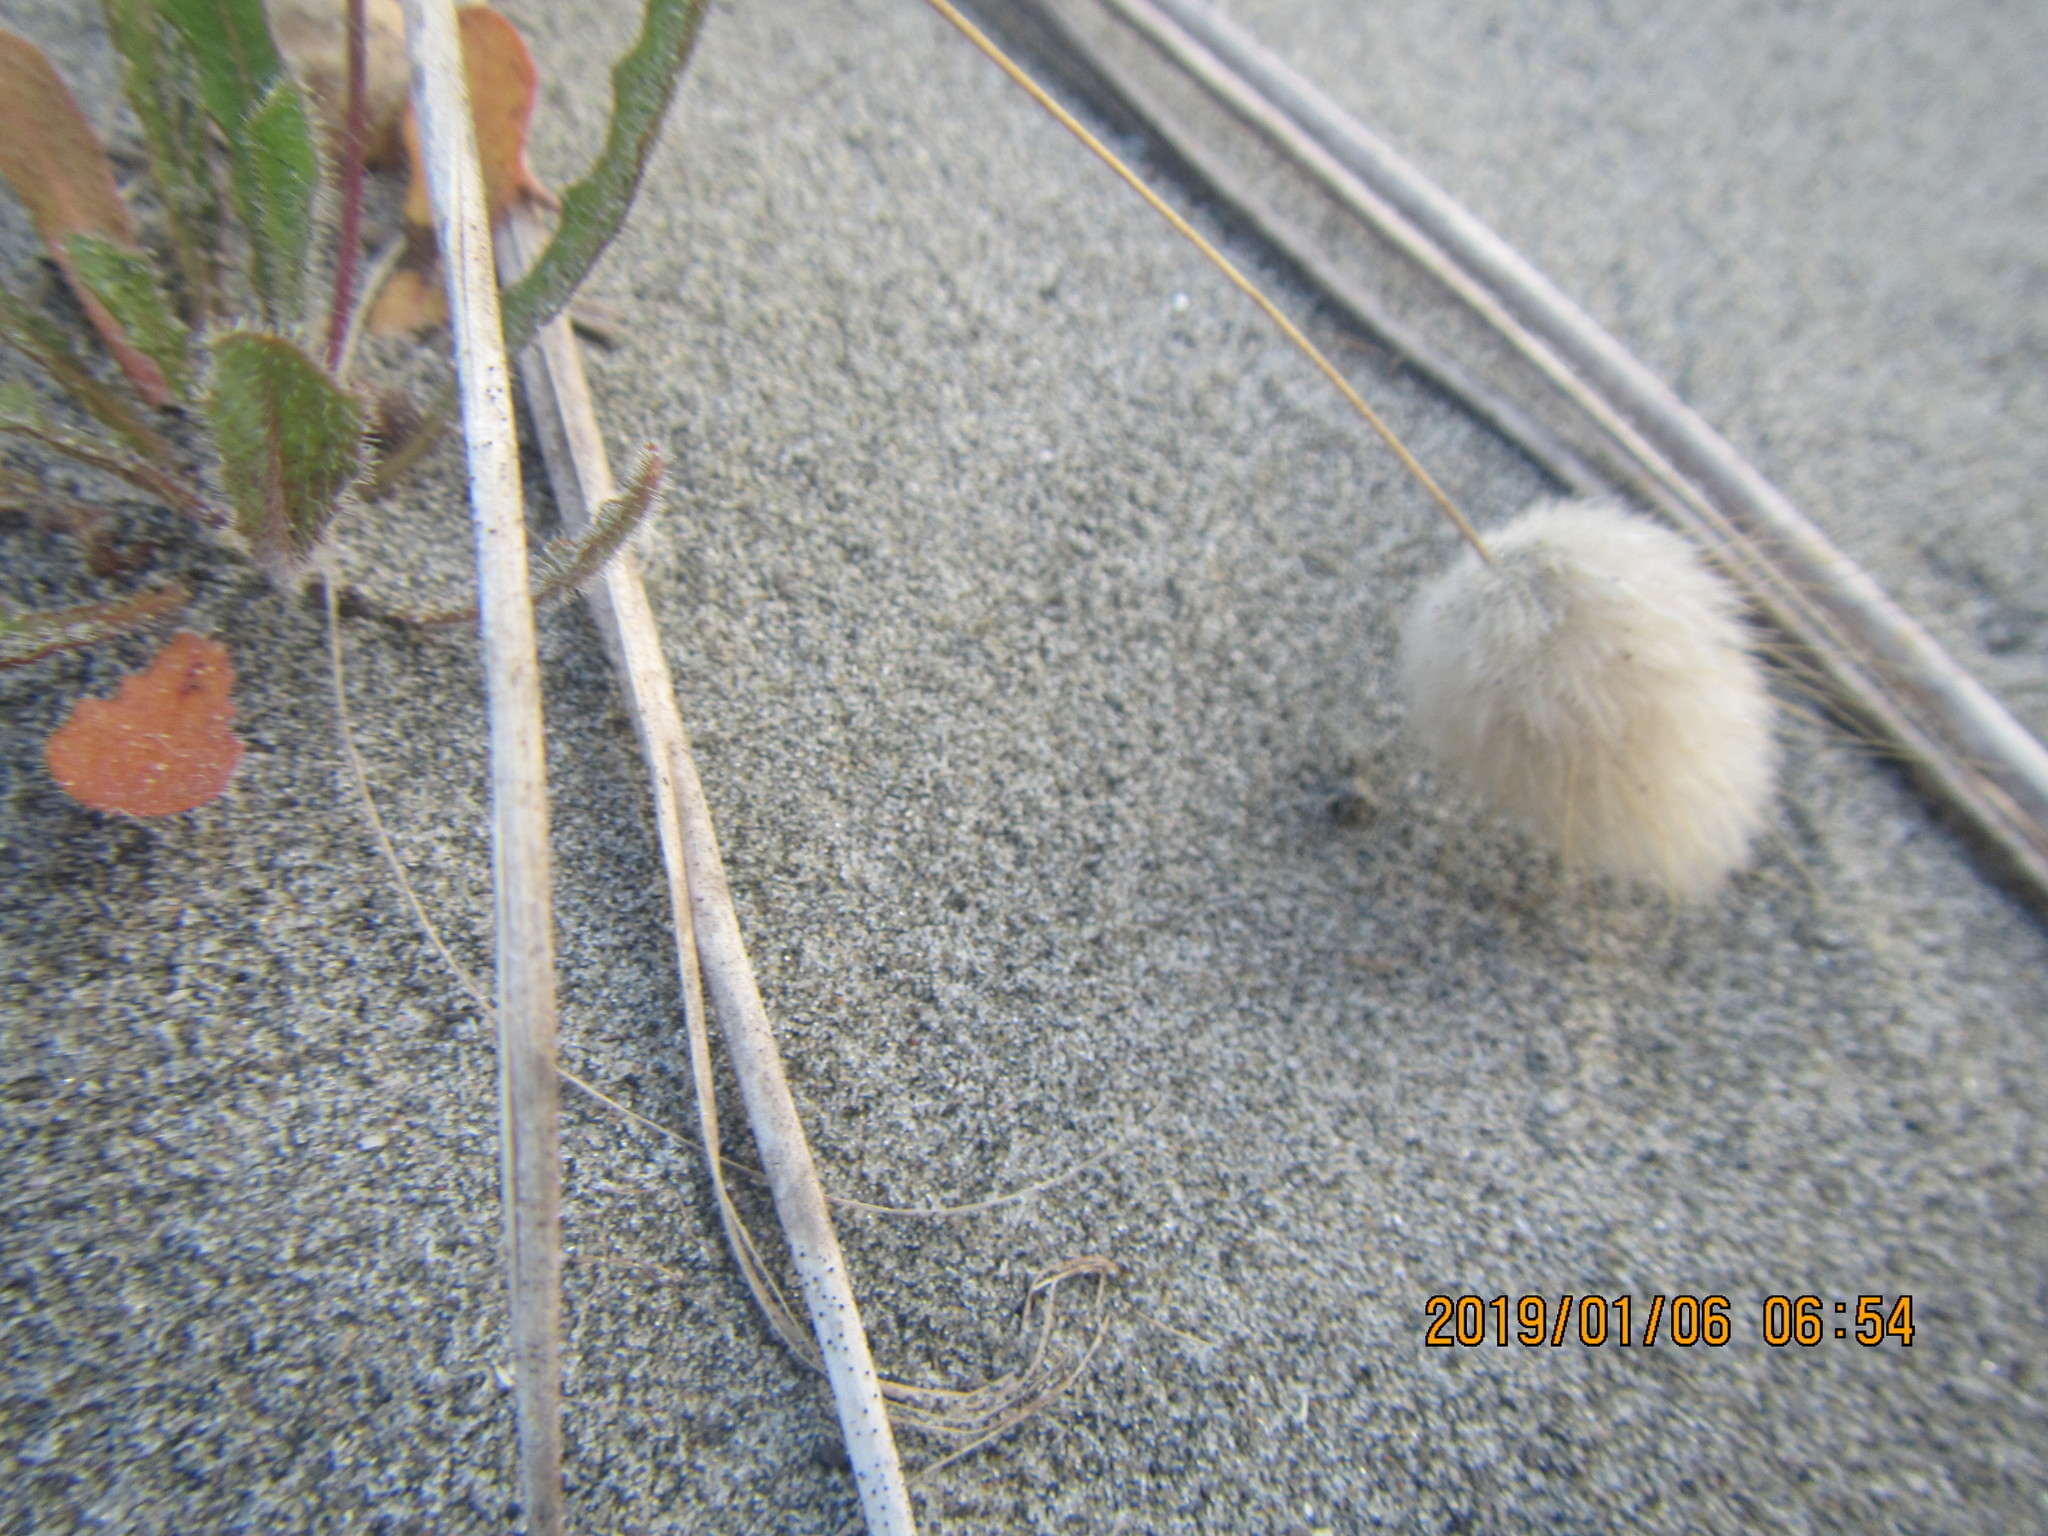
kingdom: Animalia
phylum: Arthropoda
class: Arachnida
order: Araneae
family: Lycosidae
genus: Anoteropsis
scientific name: Anoteropsis litoralis
